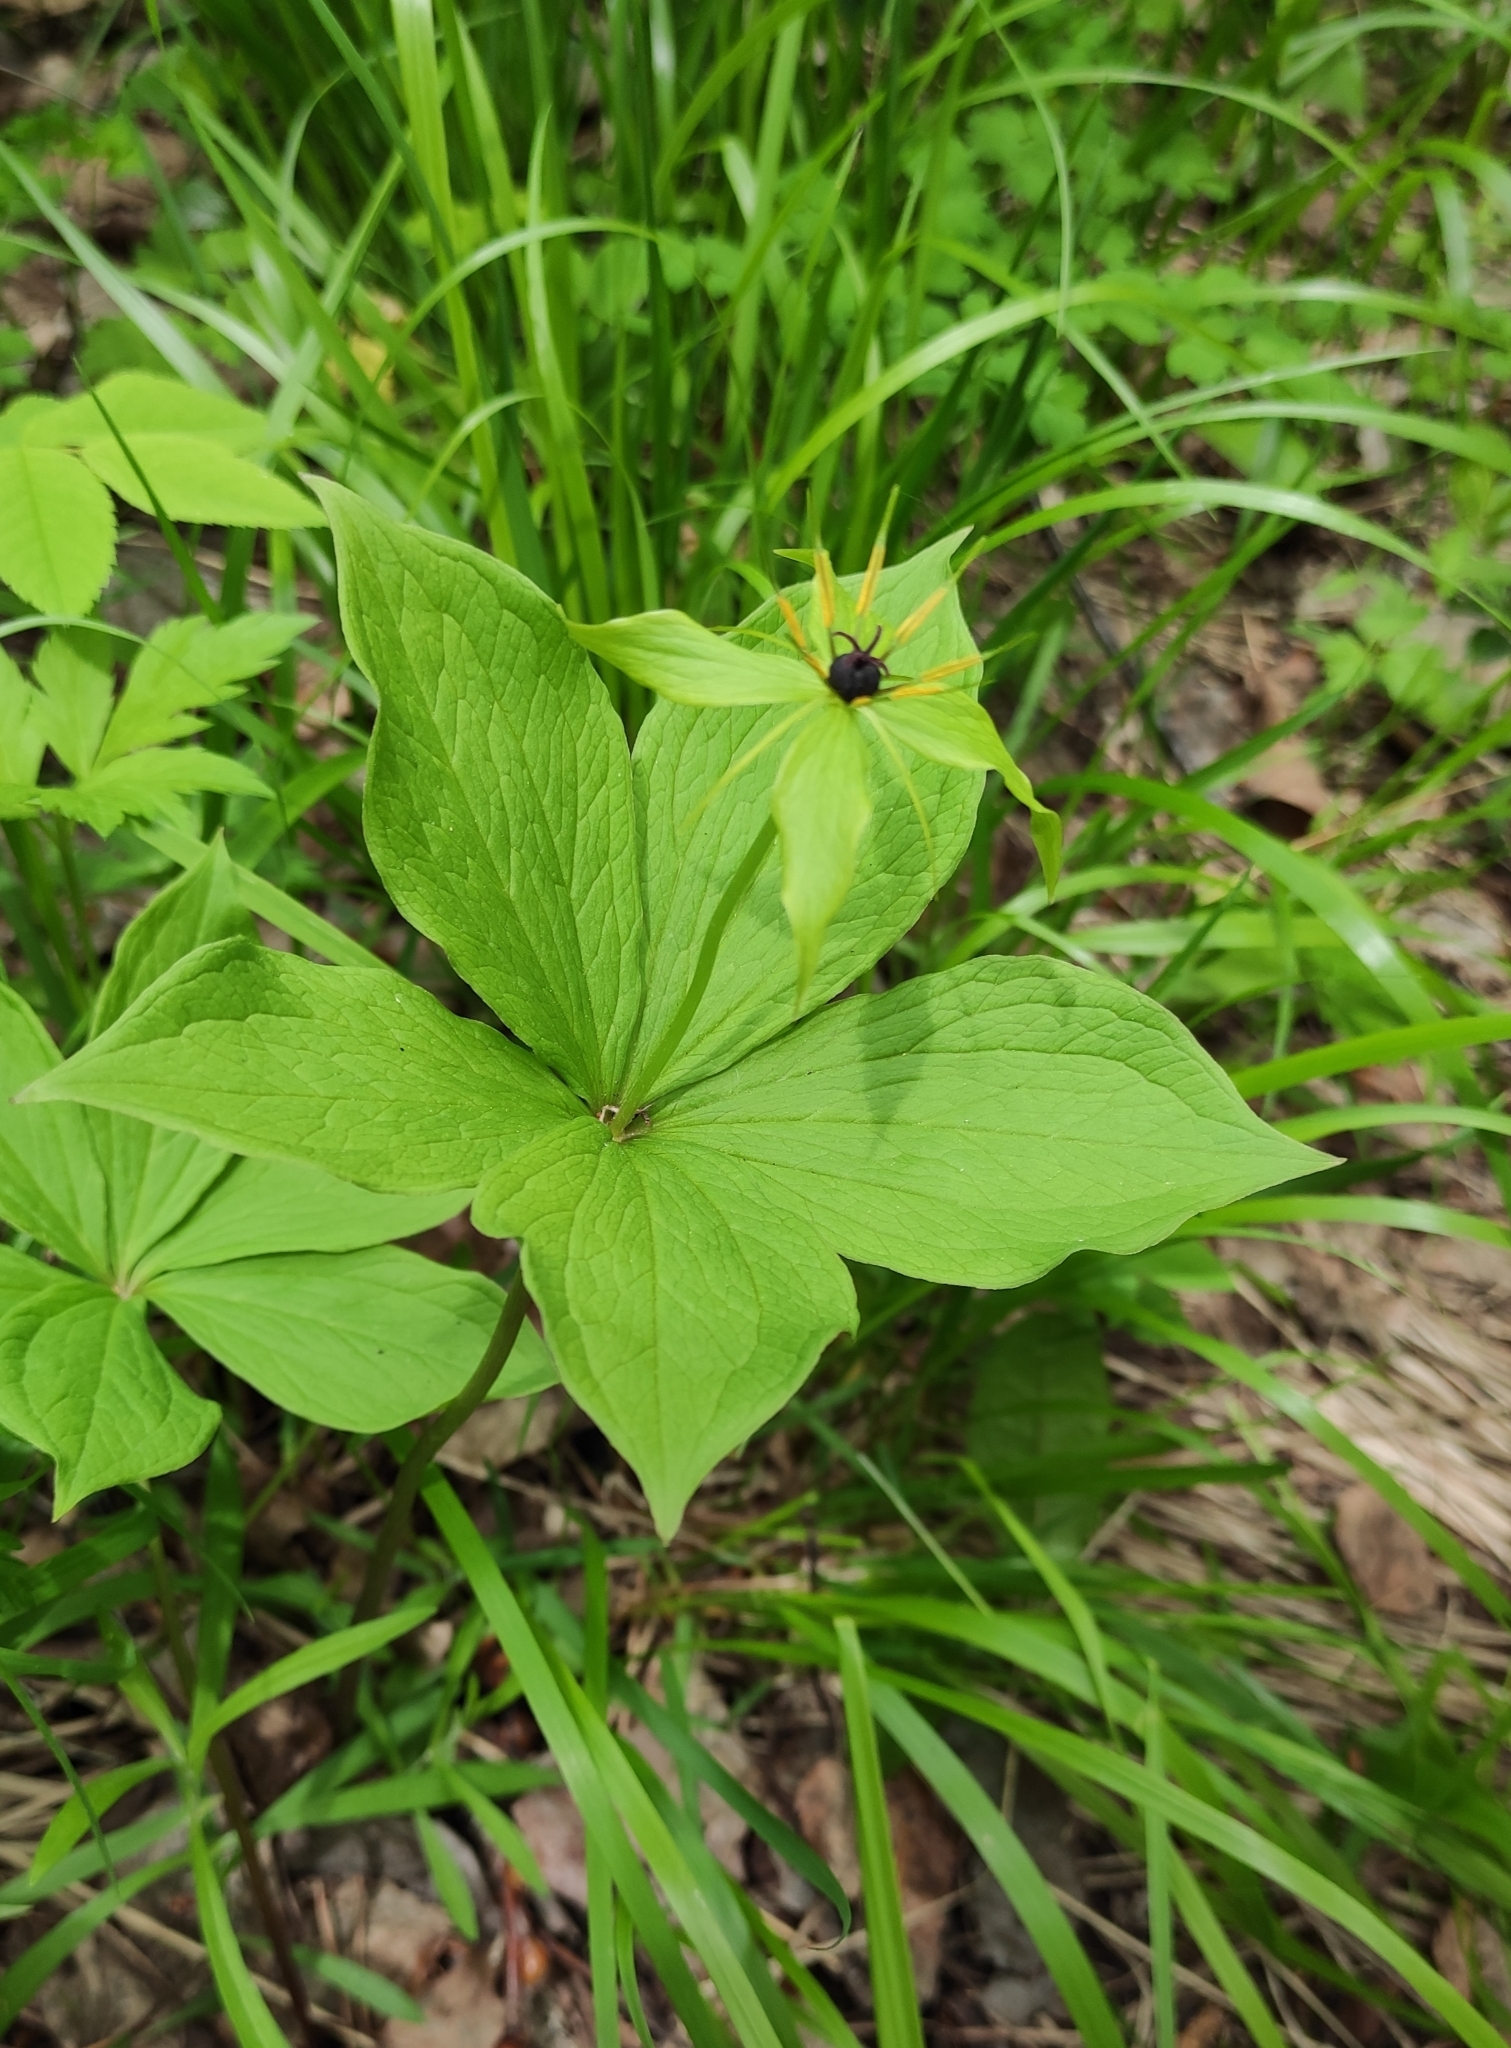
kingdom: Plantae
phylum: Tracheophyta
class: Liliopsida
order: Liliales
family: Melanthiaceae
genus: Paris
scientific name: Paris verticillata
